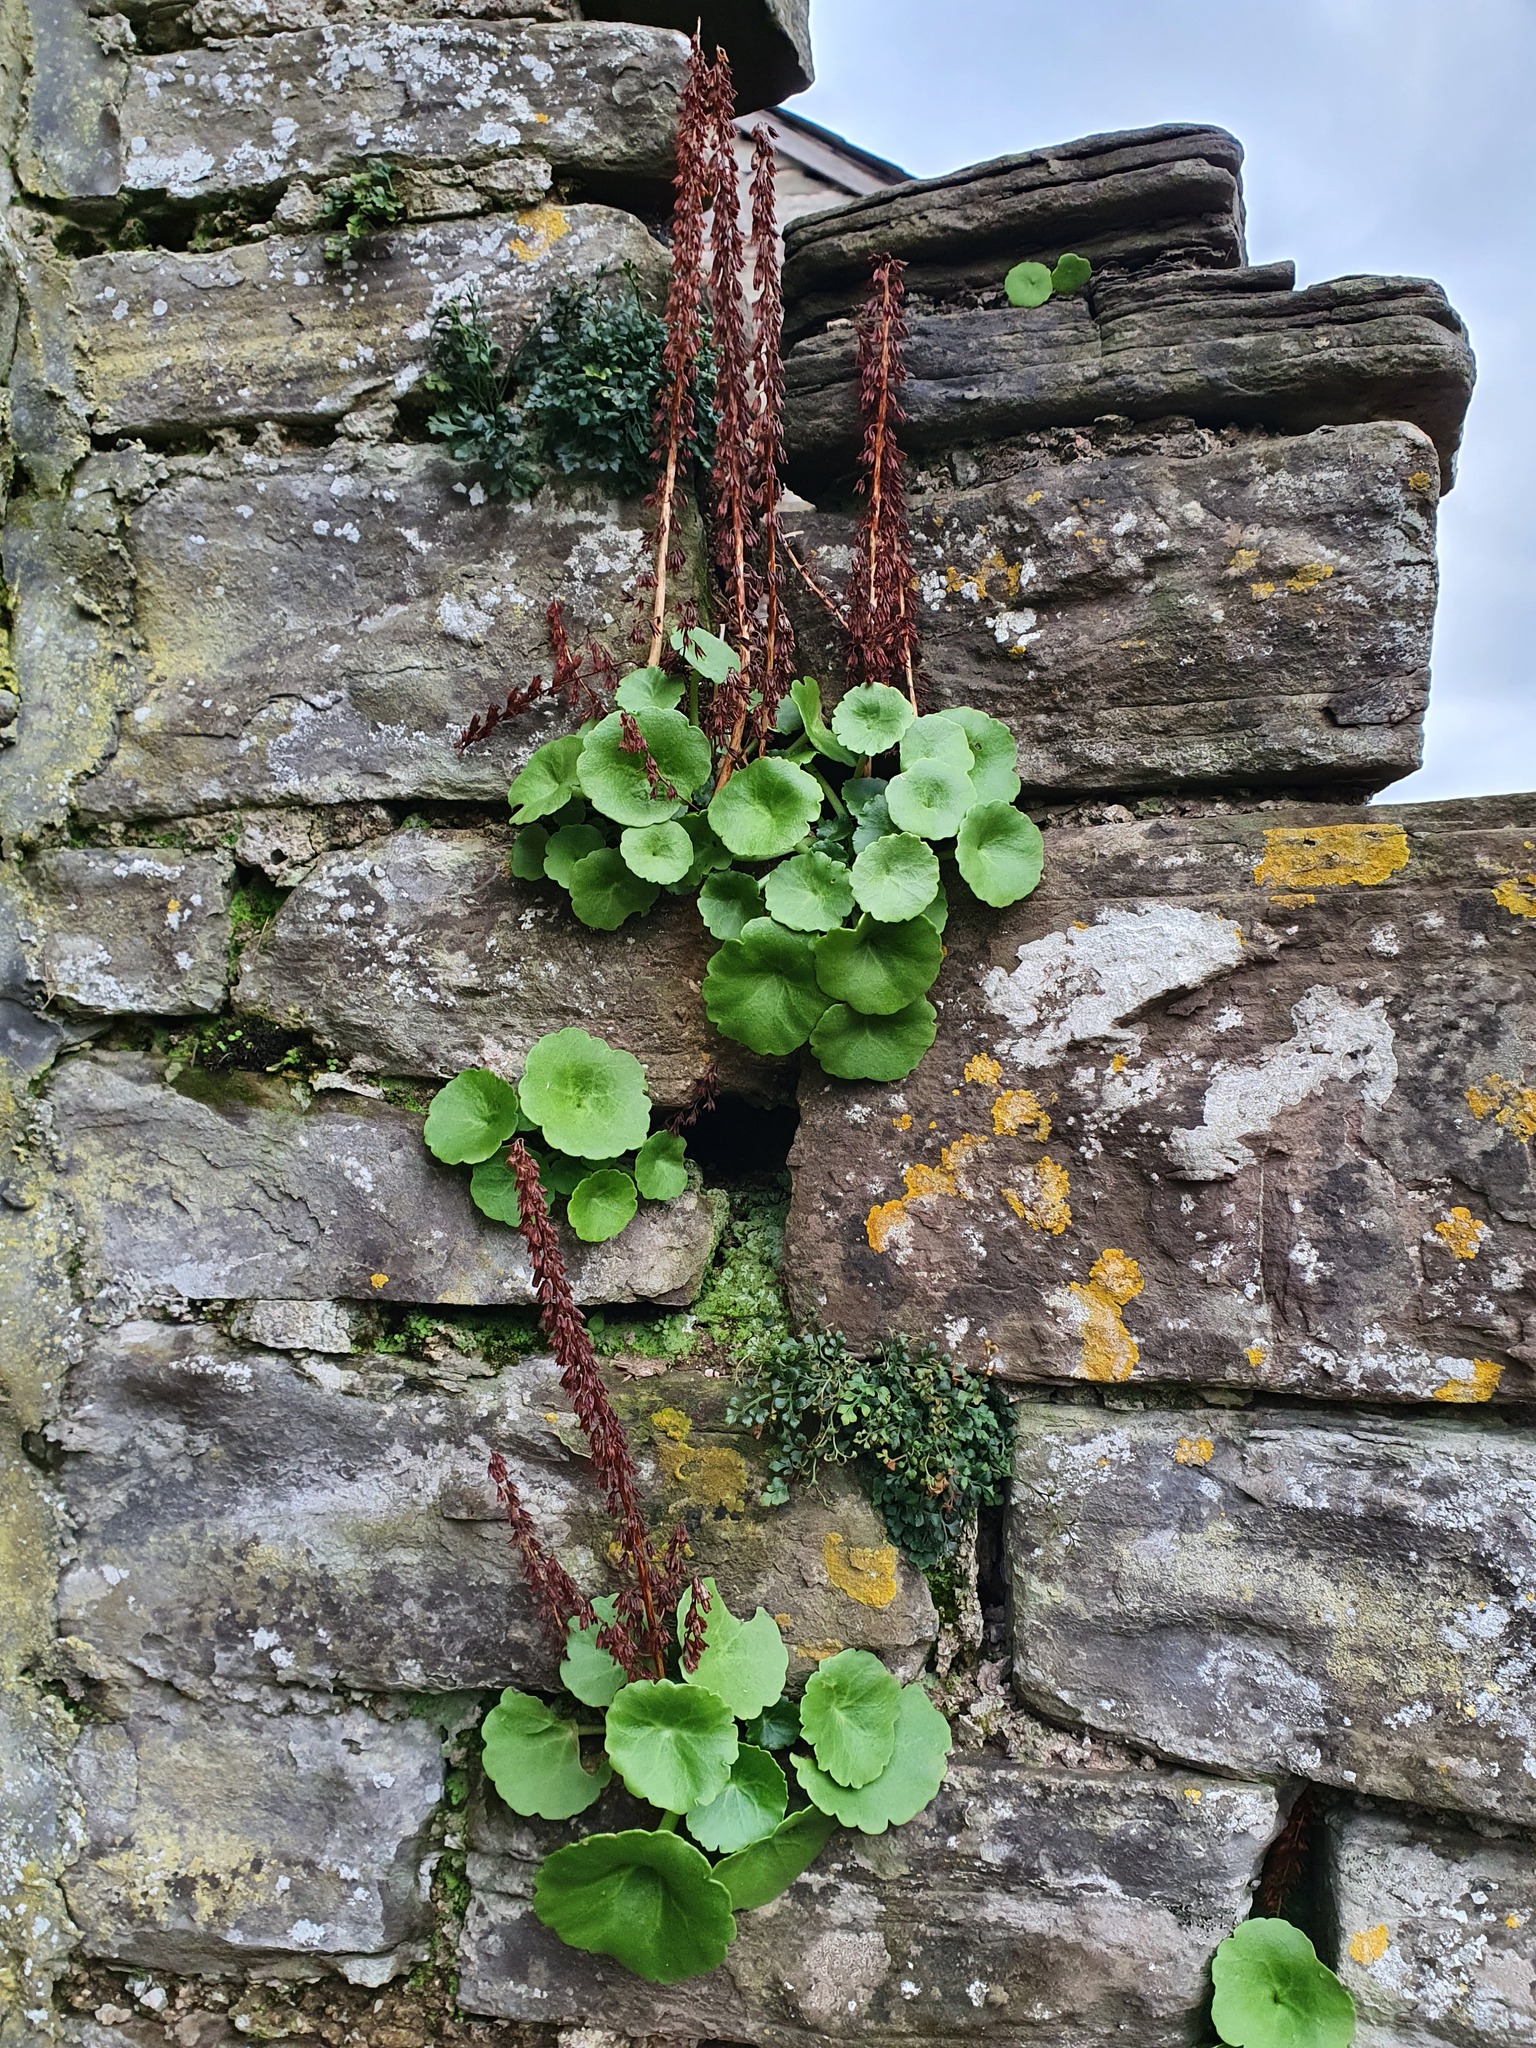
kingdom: Plantae
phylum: Tracheophyta
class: Magnoliopsida
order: Saxifragales
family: Crassulaceae
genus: Umbilicus
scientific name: Umbilicus rupestris
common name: Navelwort
